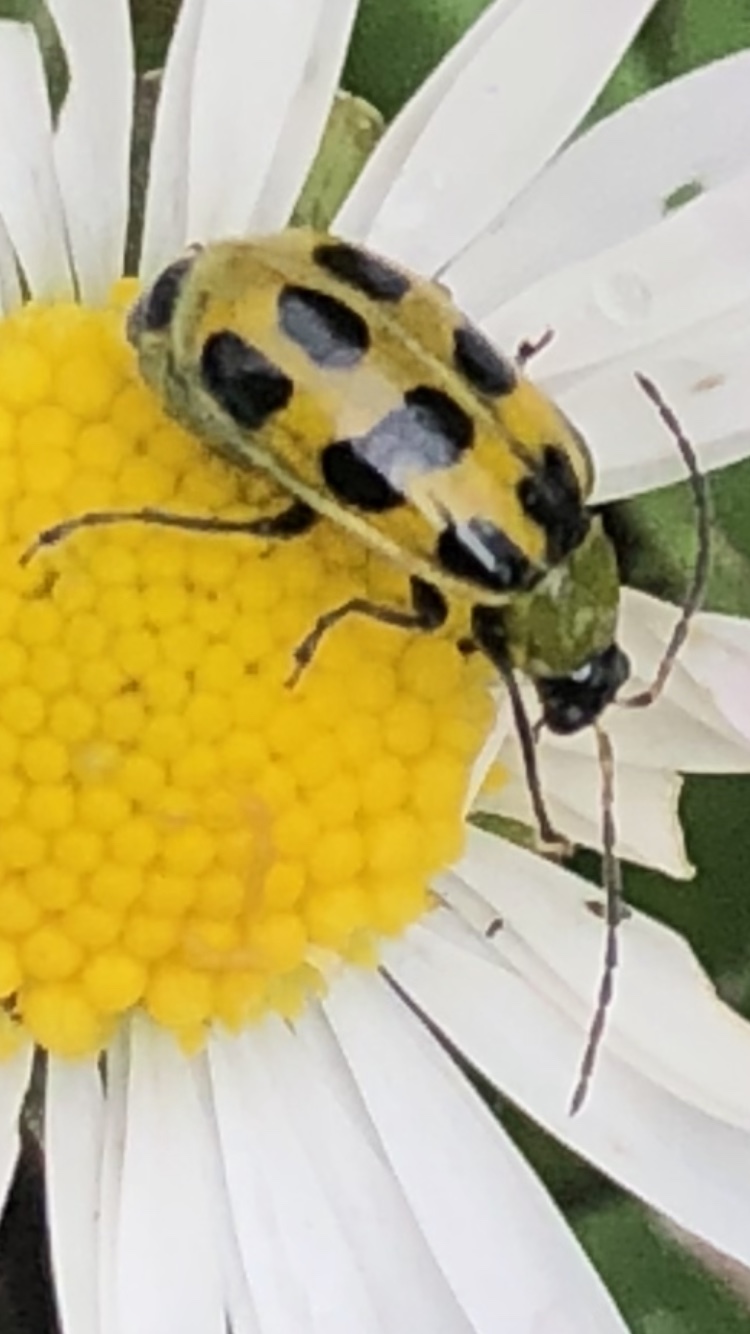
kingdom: Animalia
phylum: Arthropoda
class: Insecta
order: Coleoptera
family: Chrysomelidae
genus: Diabrotica
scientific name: Diabrotica undecimpunctata
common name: Spotted cucumber beetle
